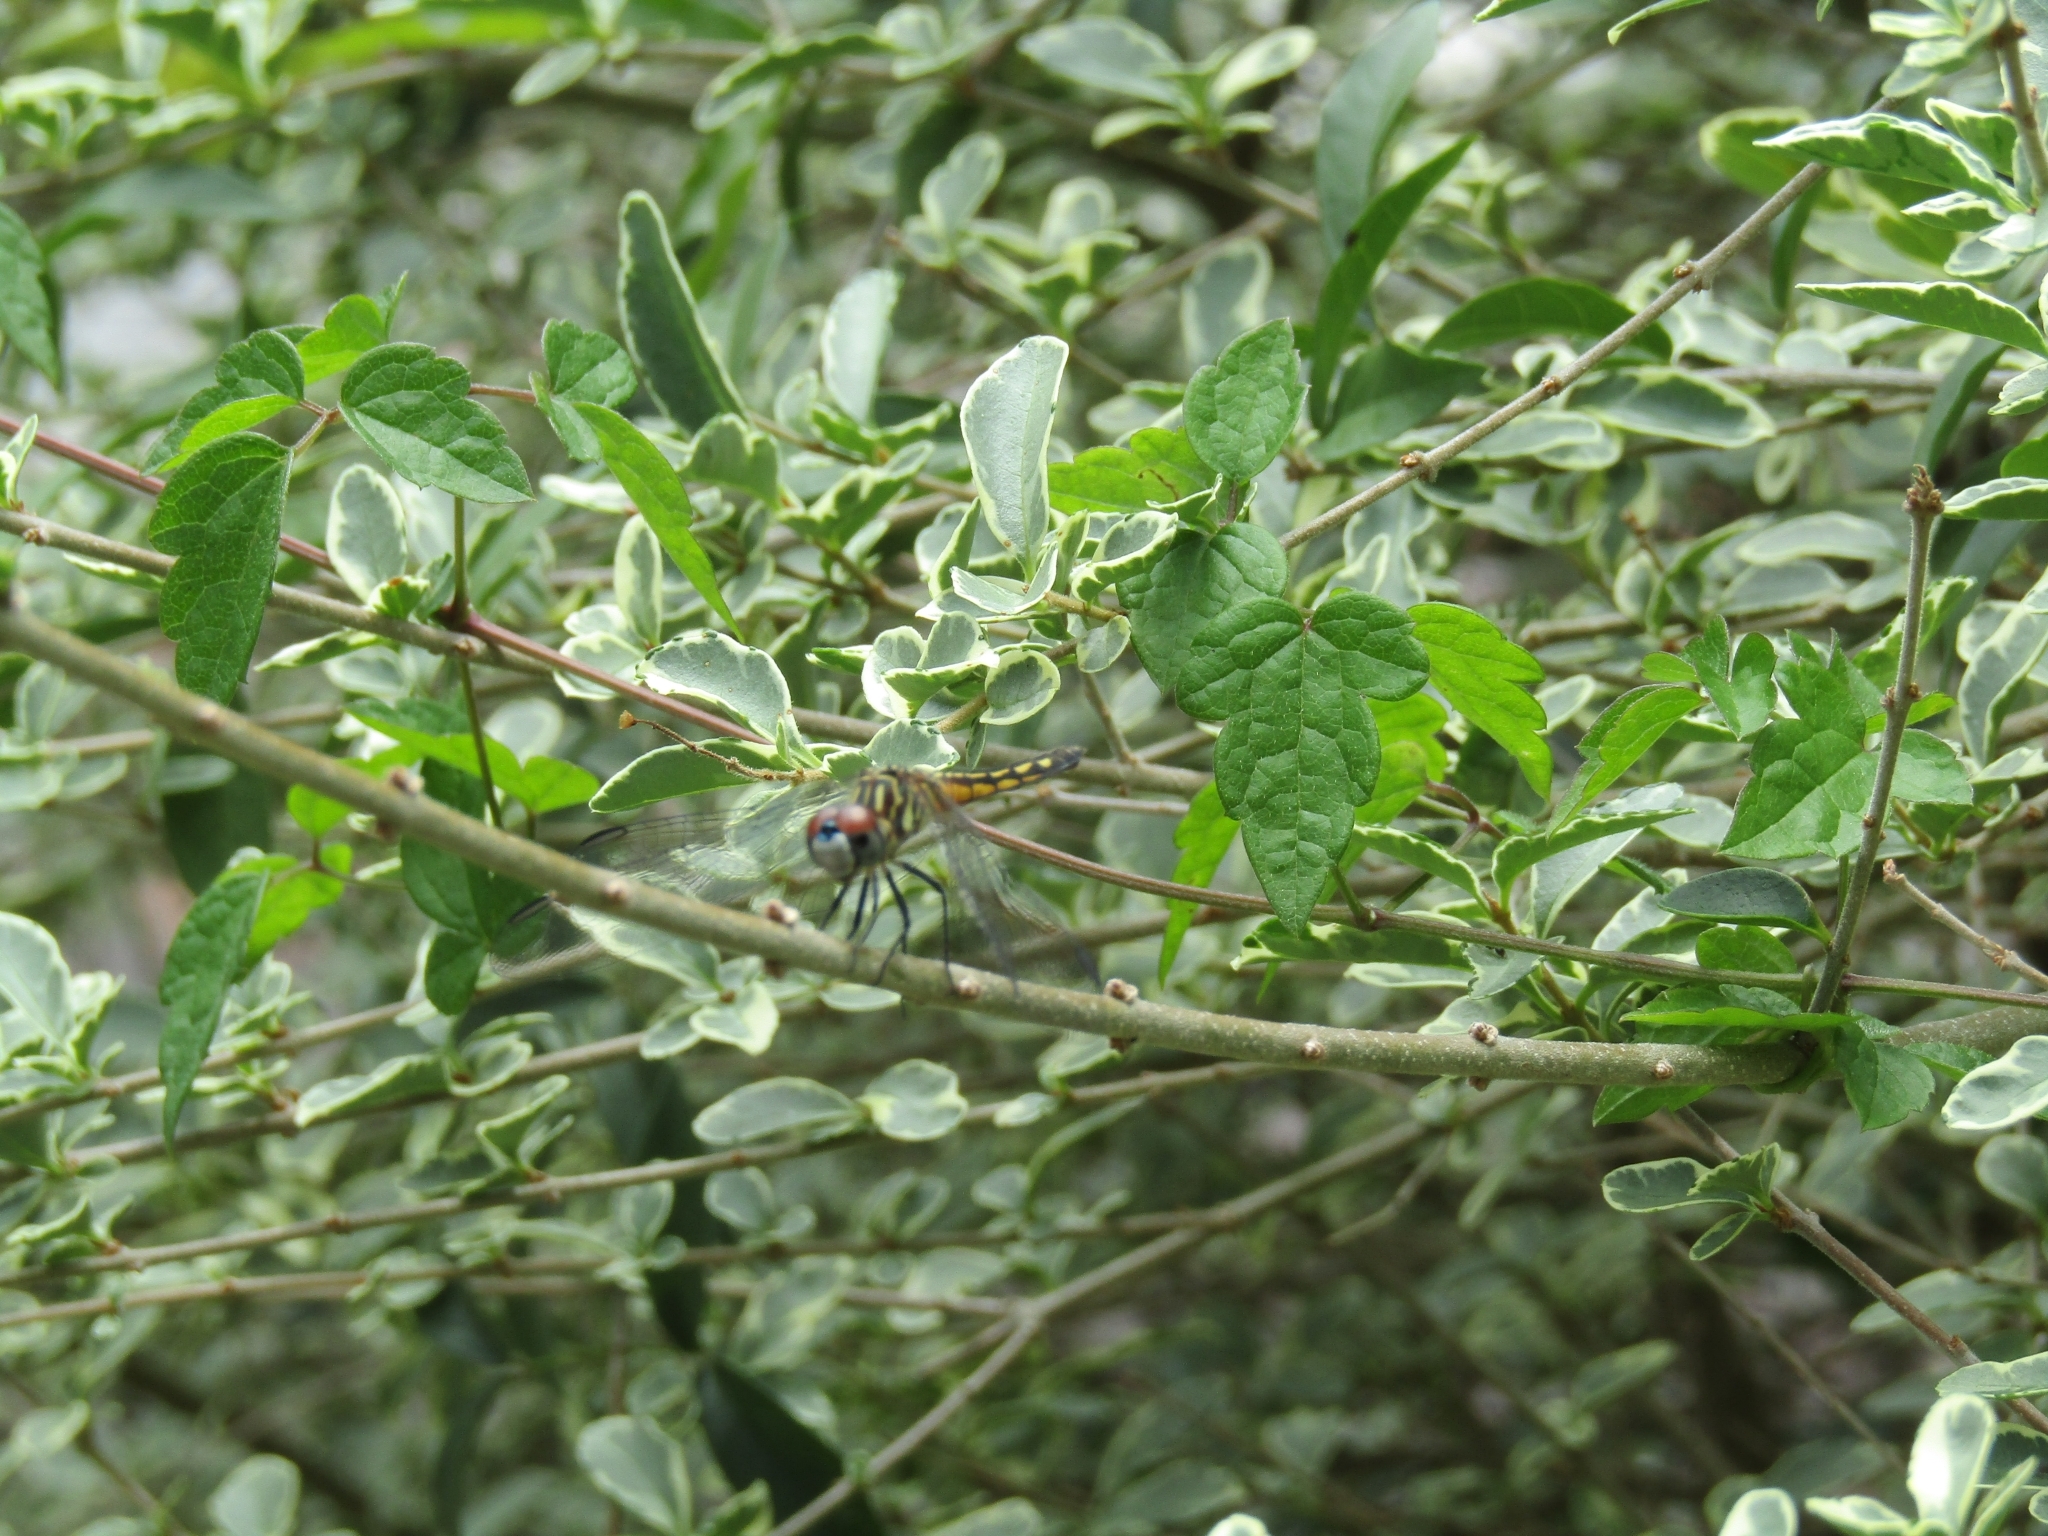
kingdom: Animalia
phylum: Arthropoda
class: Insecta
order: Odonata
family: Libellulidae
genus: Pachydiplax
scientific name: Pachydiplax longipennis
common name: Blue dasher
